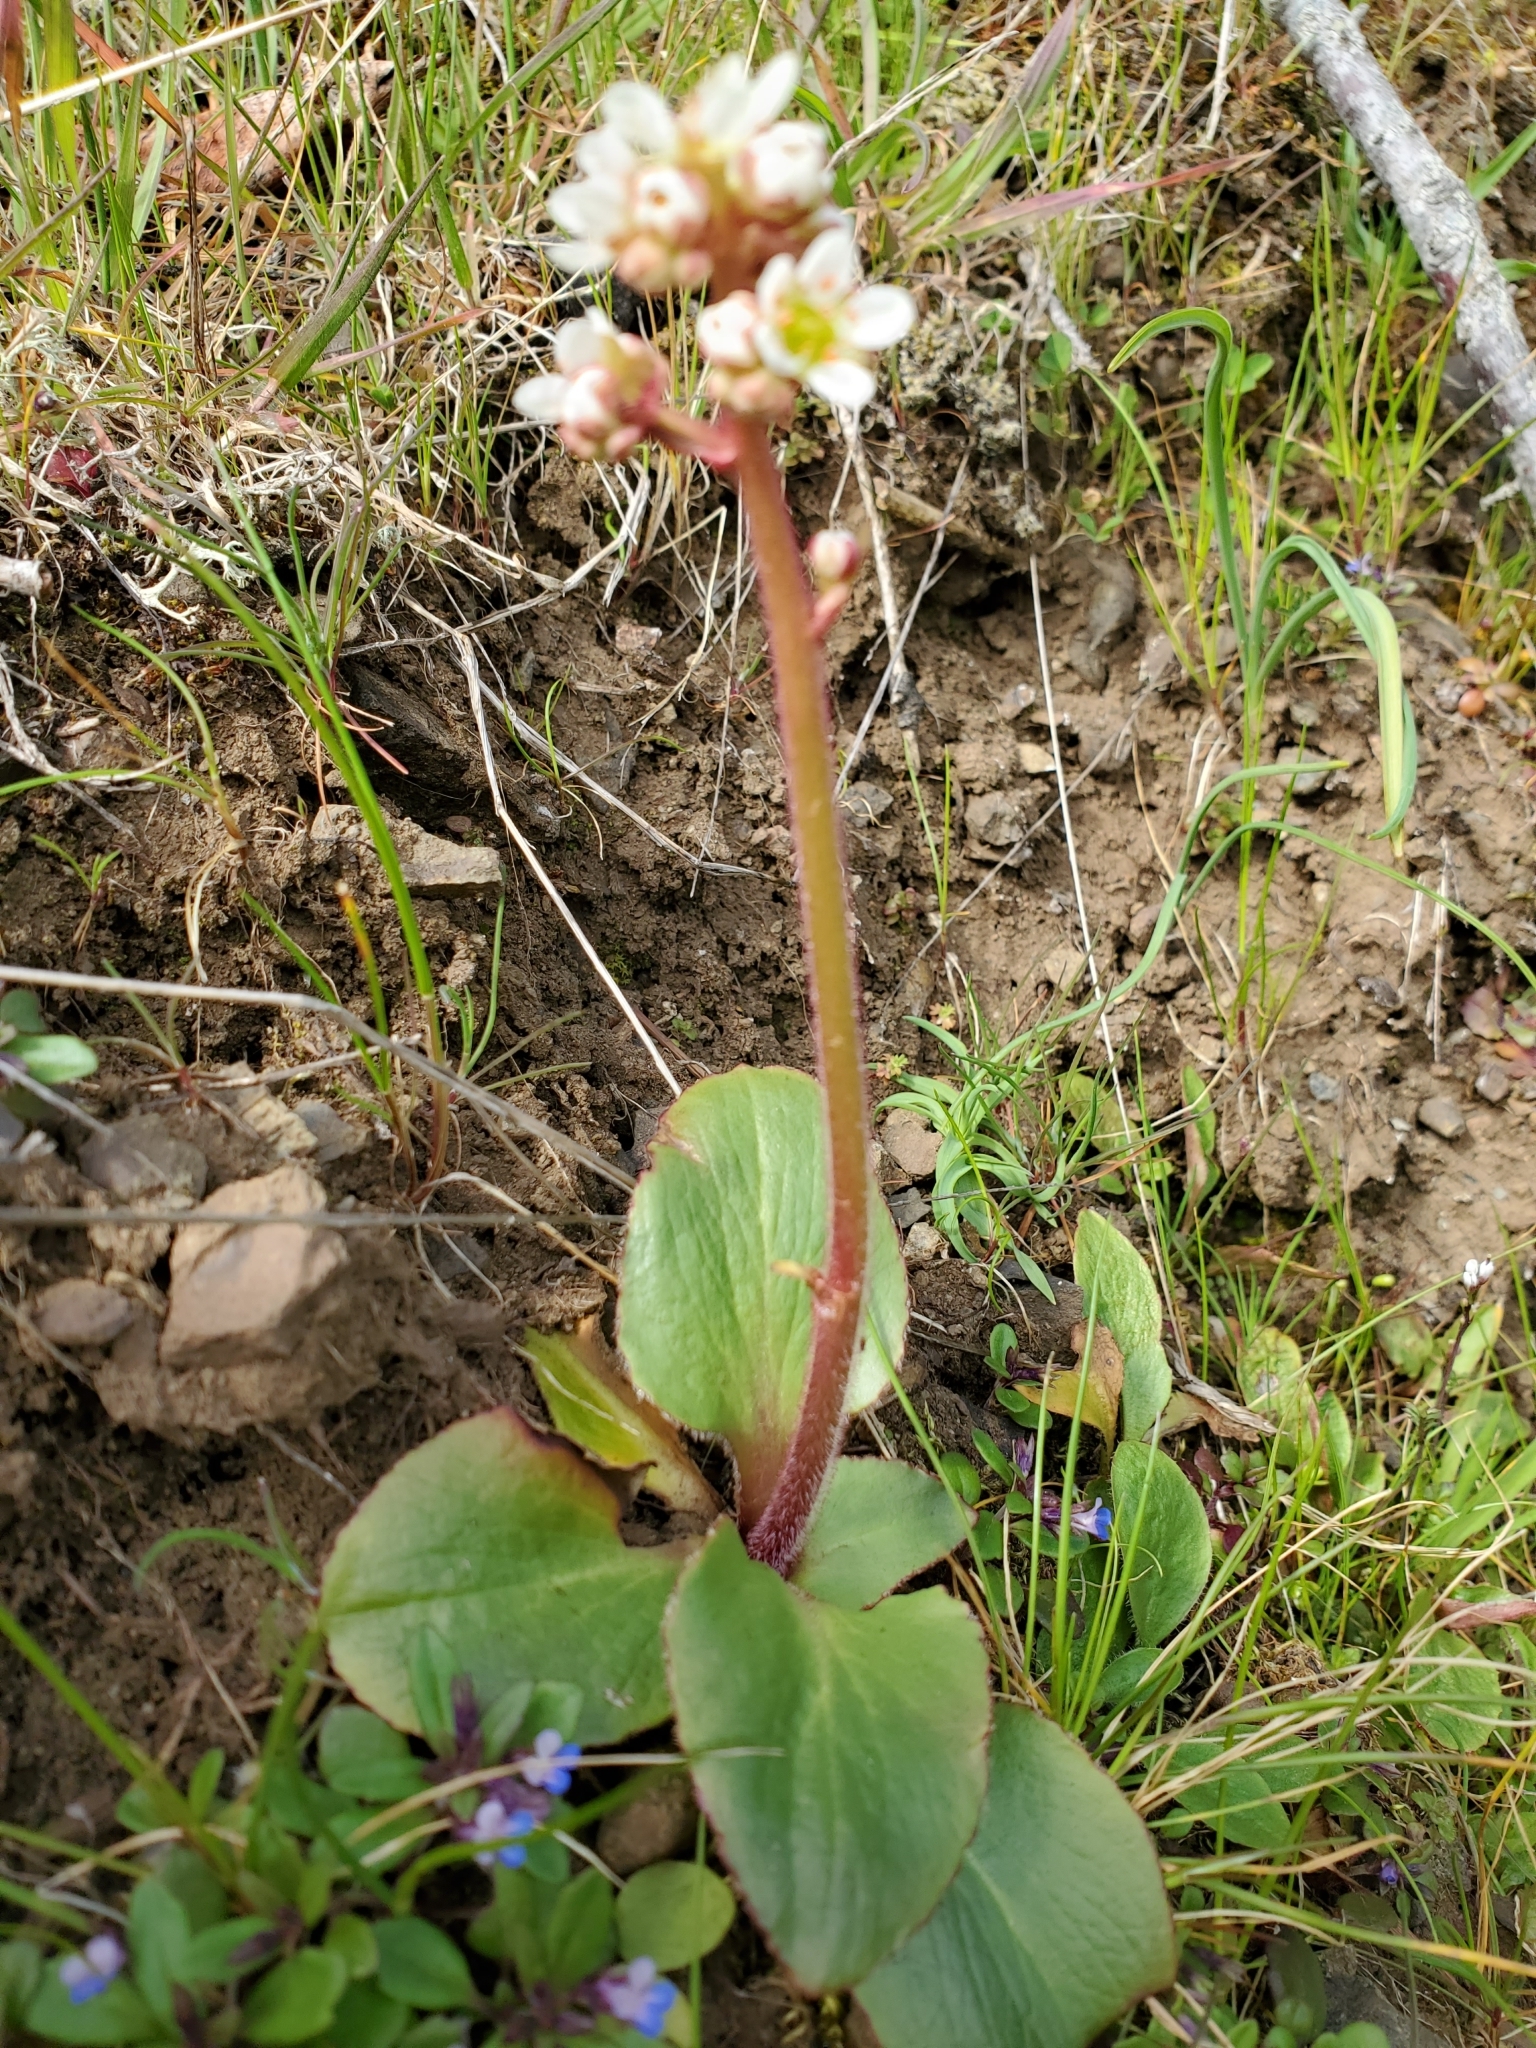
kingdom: Plantae
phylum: Tracheophyta
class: Magnoliopsida
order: Saxifragales
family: Saxifragaceae
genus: Micranthes
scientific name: Micranthes integrifolia
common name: Wholeleaf saxifrage
